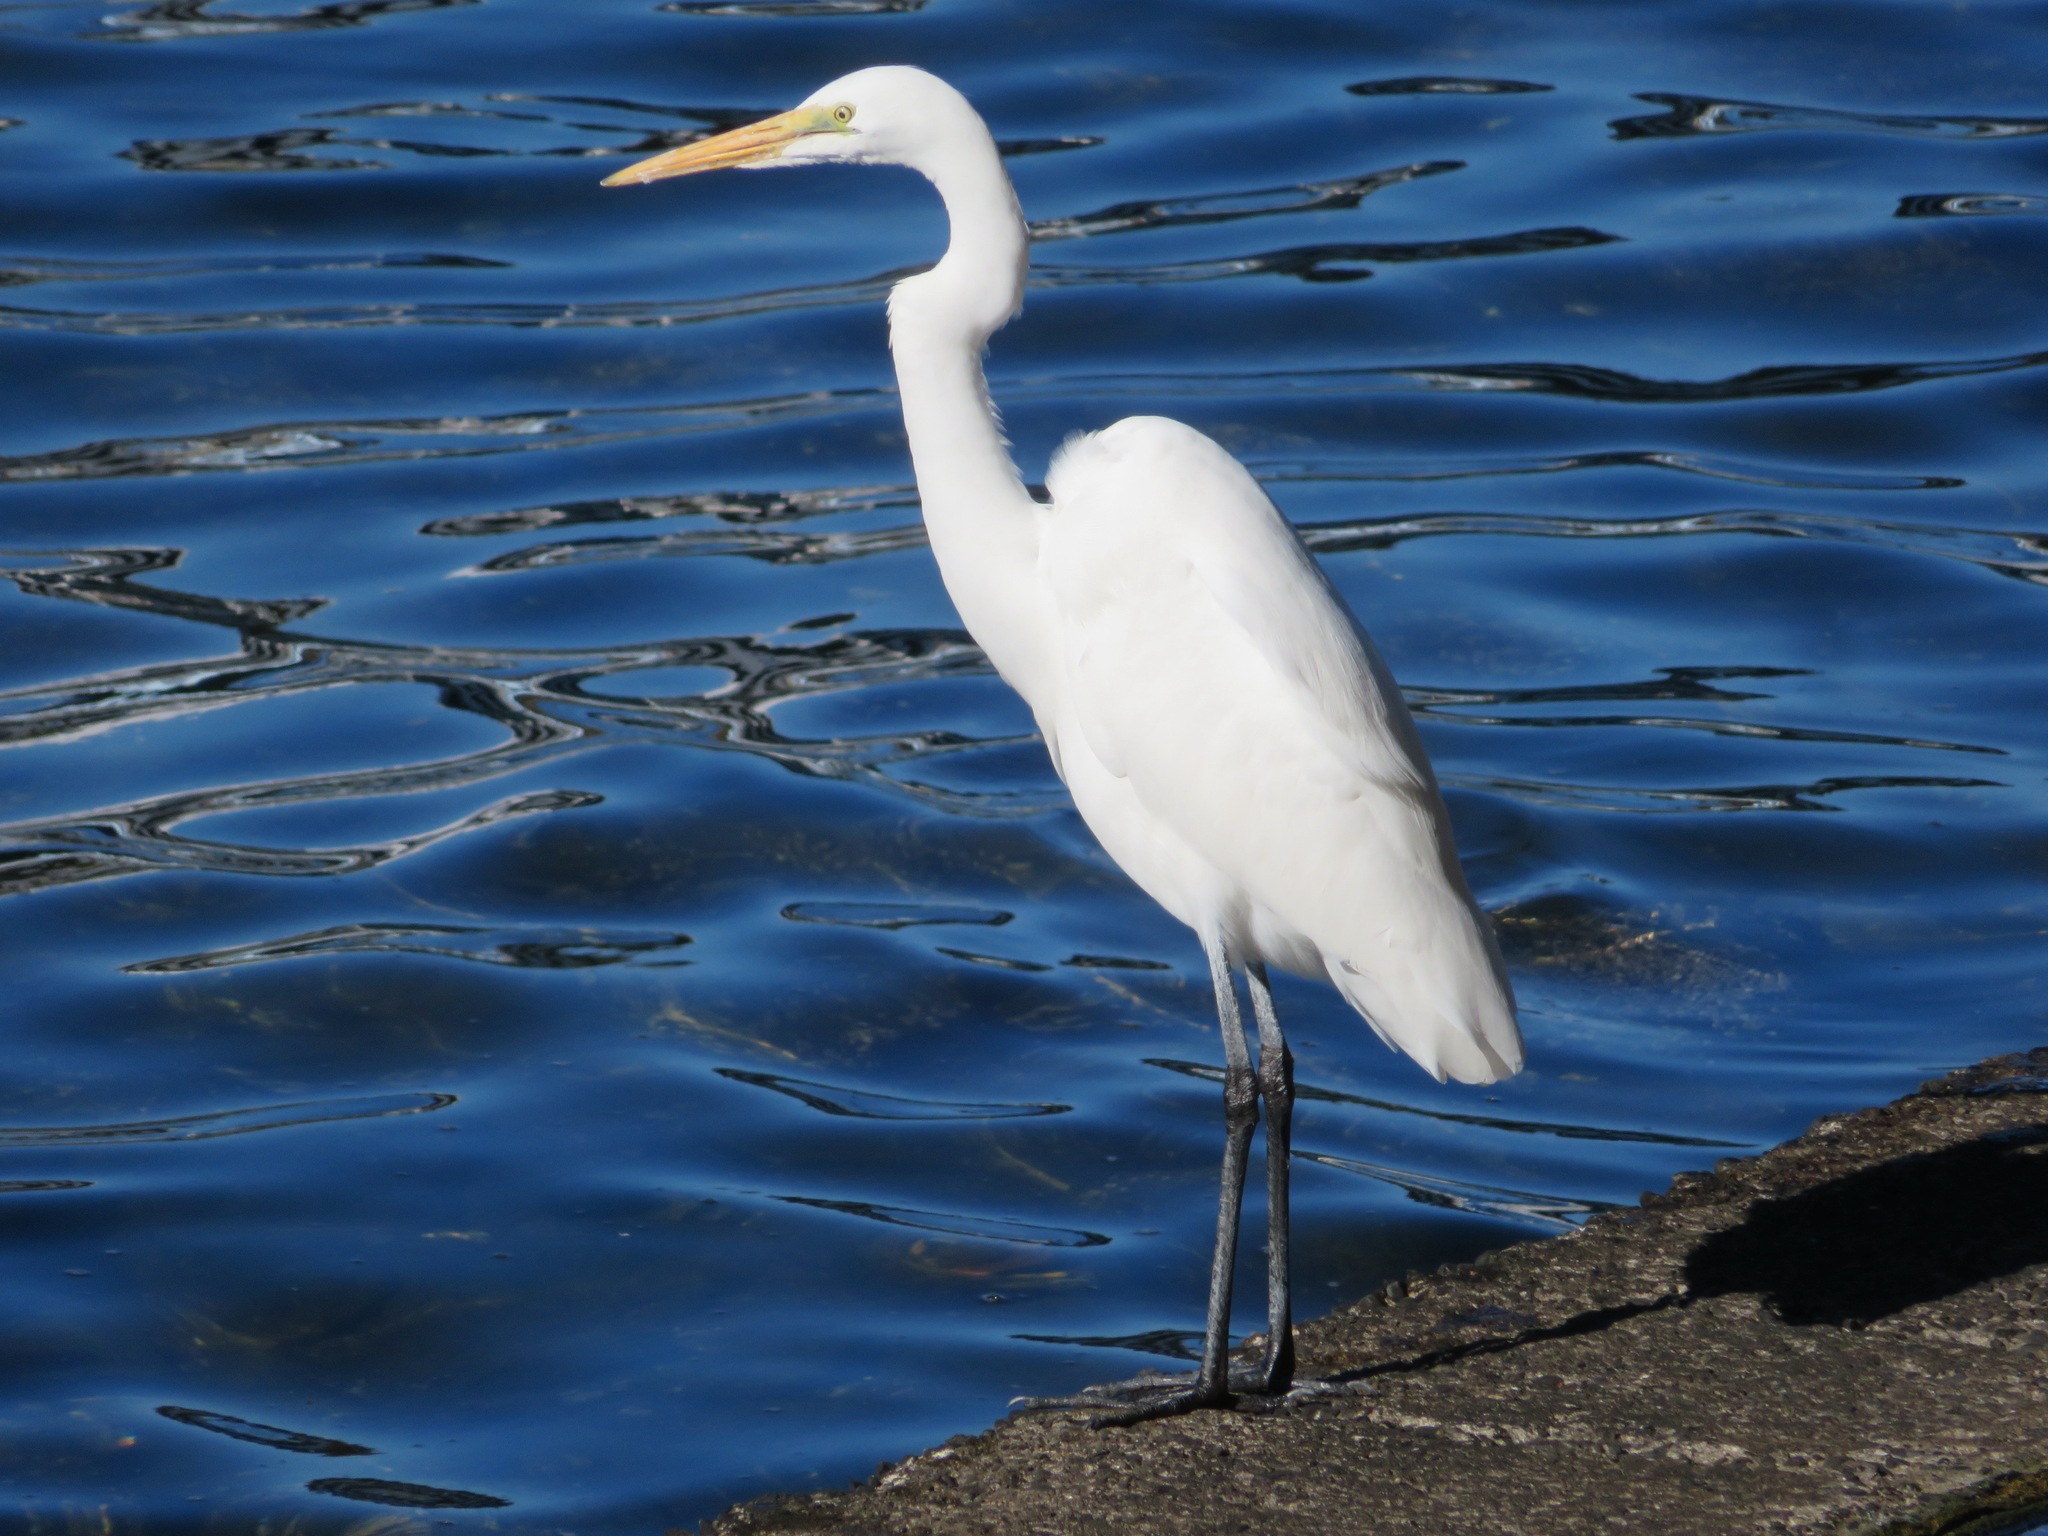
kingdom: Animalia
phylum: Chordata
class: Aves
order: Pelecaniformes
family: Ardeidae
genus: Ardea
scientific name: Ardea alba
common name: Great egret
